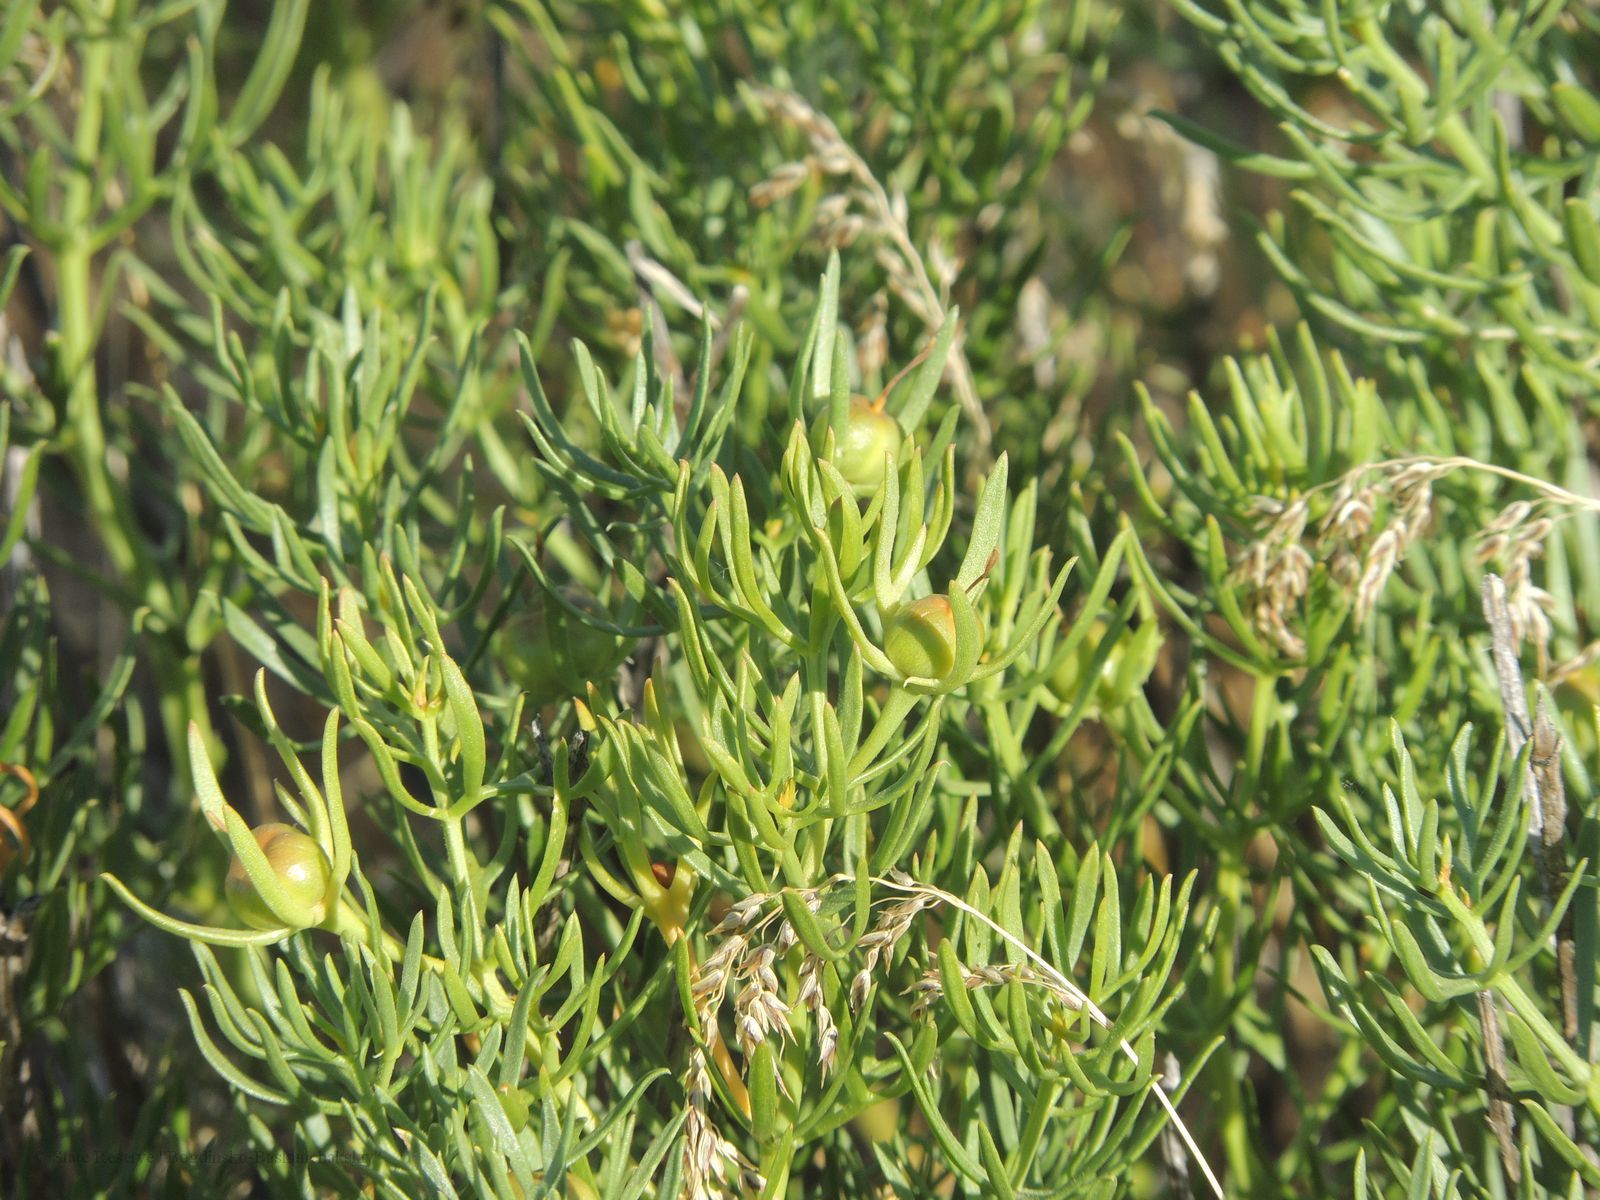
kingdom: Plantae
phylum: Tracheophyta
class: Magnoliopsida
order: Sapindales
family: Tetradiclidaceae
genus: Peganum
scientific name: Peganum harmala
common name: Harmal peganum
